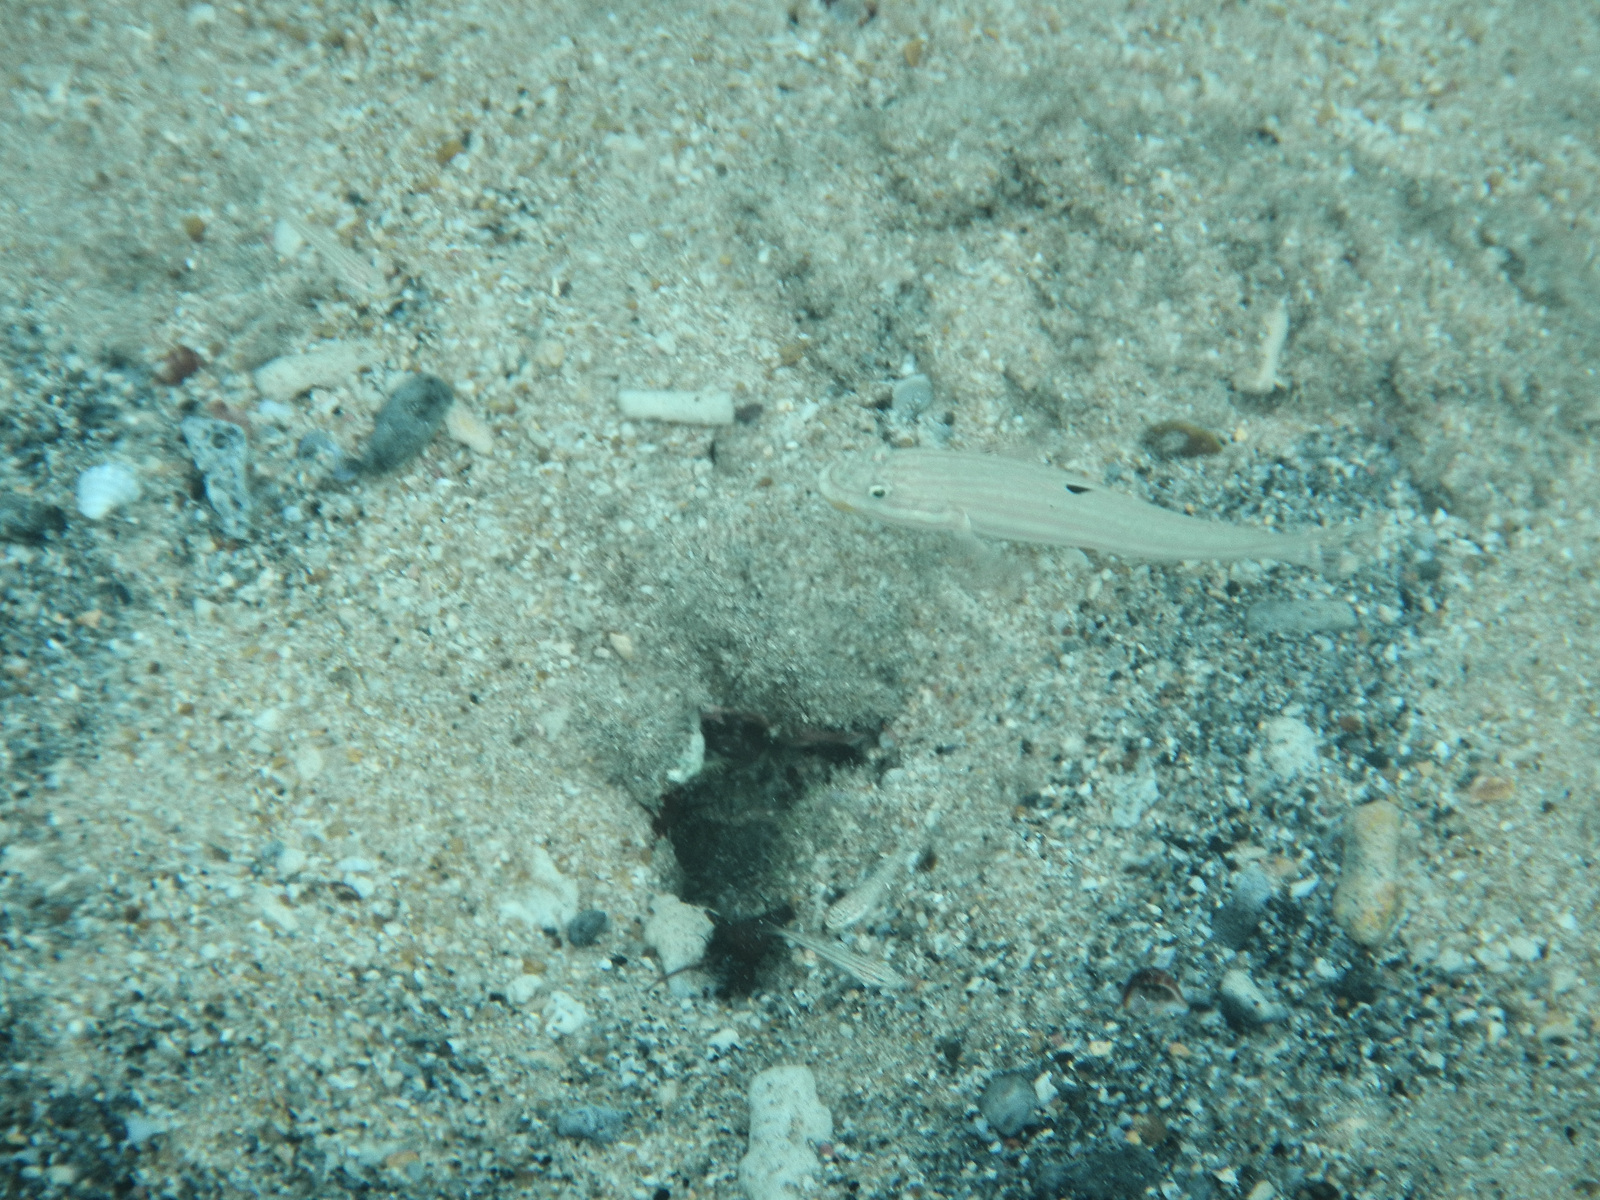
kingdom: Animalia
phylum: Chordata
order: Perciformes
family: Gobiidae
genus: Valenciennea
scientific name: Valenciennea muralis
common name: Mural goby
